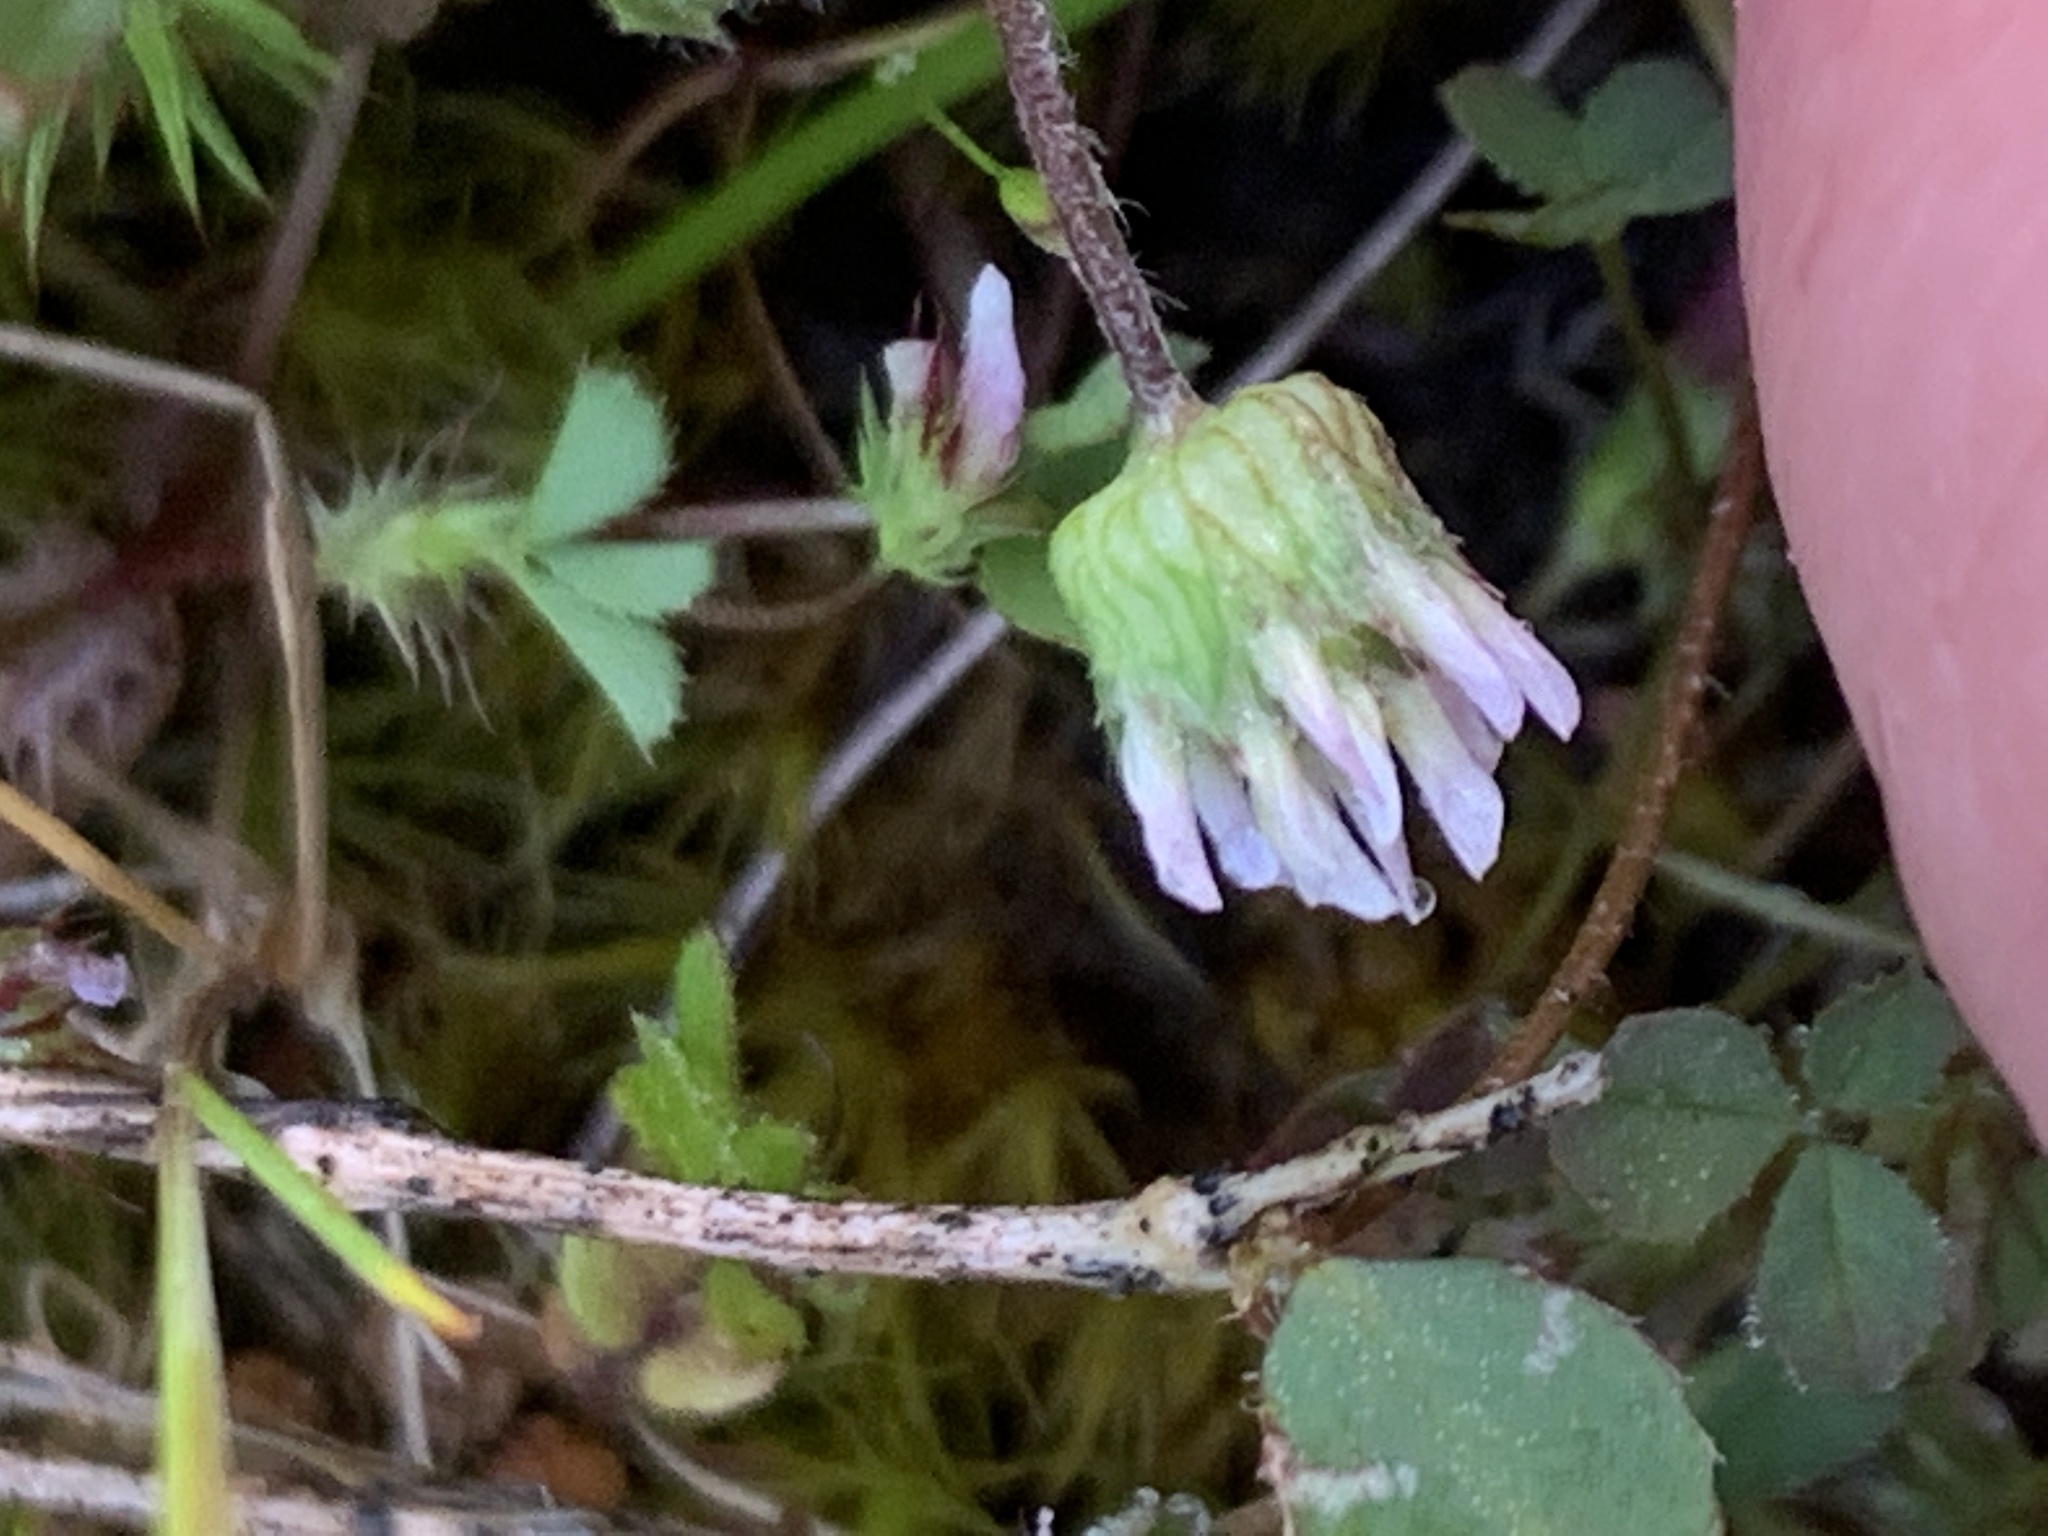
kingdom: Plantae
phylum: Tracheophyta
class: Magnoliopsida
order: Fabales
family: Fabaceae
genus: Trifolium
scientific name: Trifolium microdon
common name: Thimble clover
